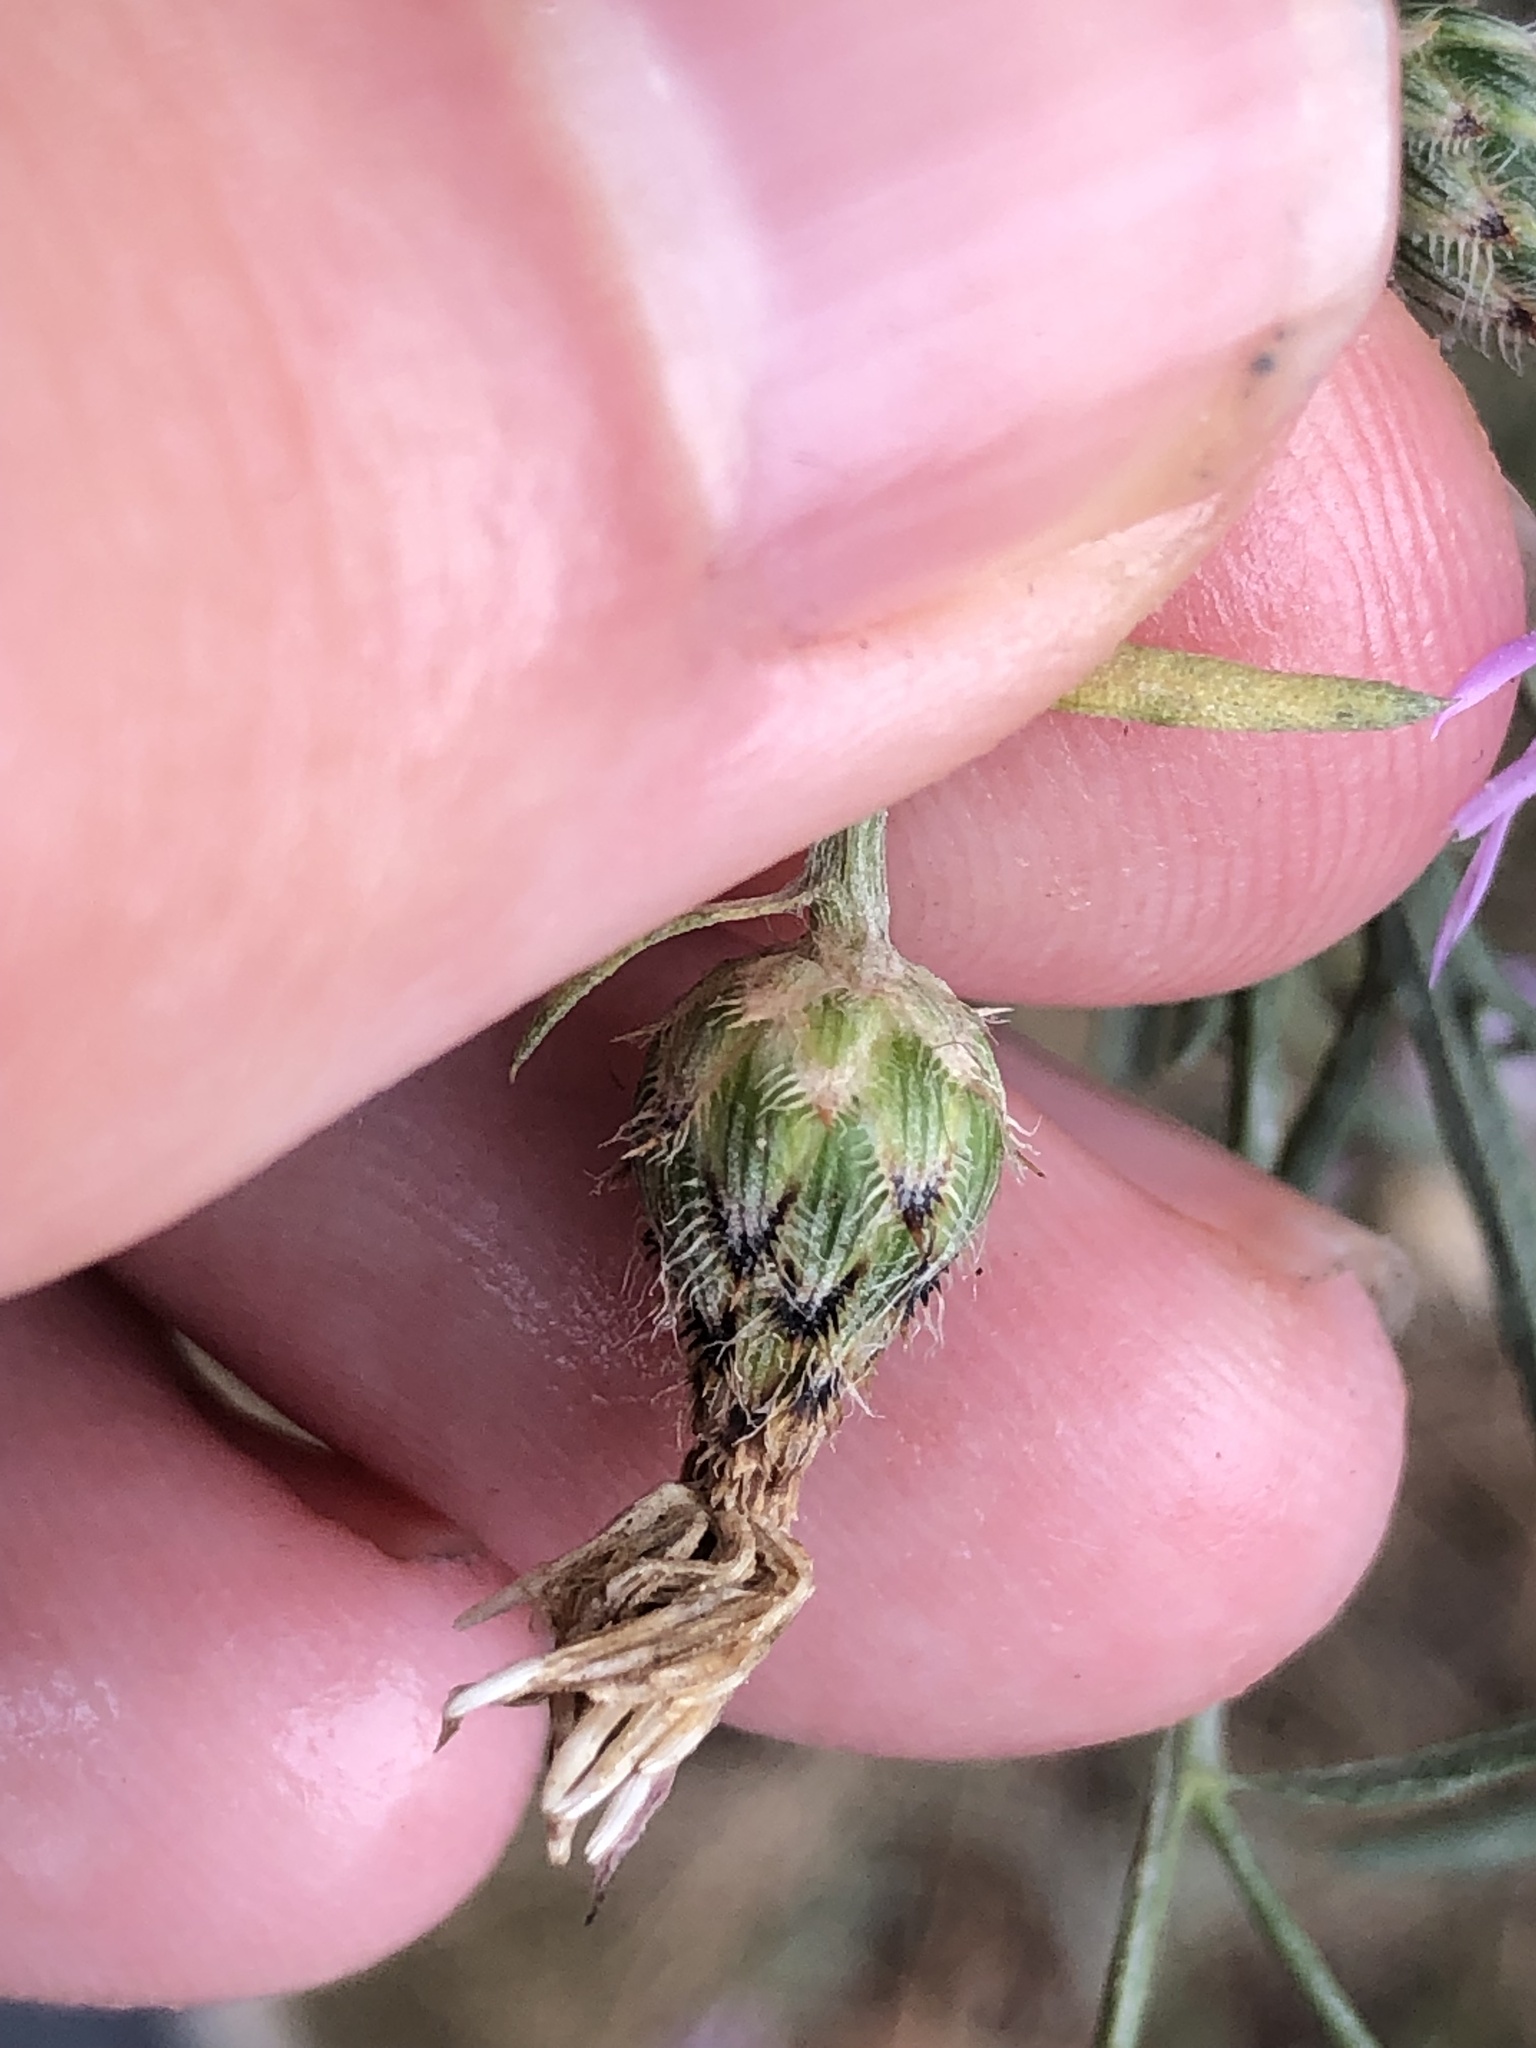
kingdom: Plantae
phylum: Tracheophyta
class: Magnoliopsida
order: Asterales
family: Asteraceae
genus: Centaurea
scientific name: Centaurea stoebe
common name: Spotted knapweed
